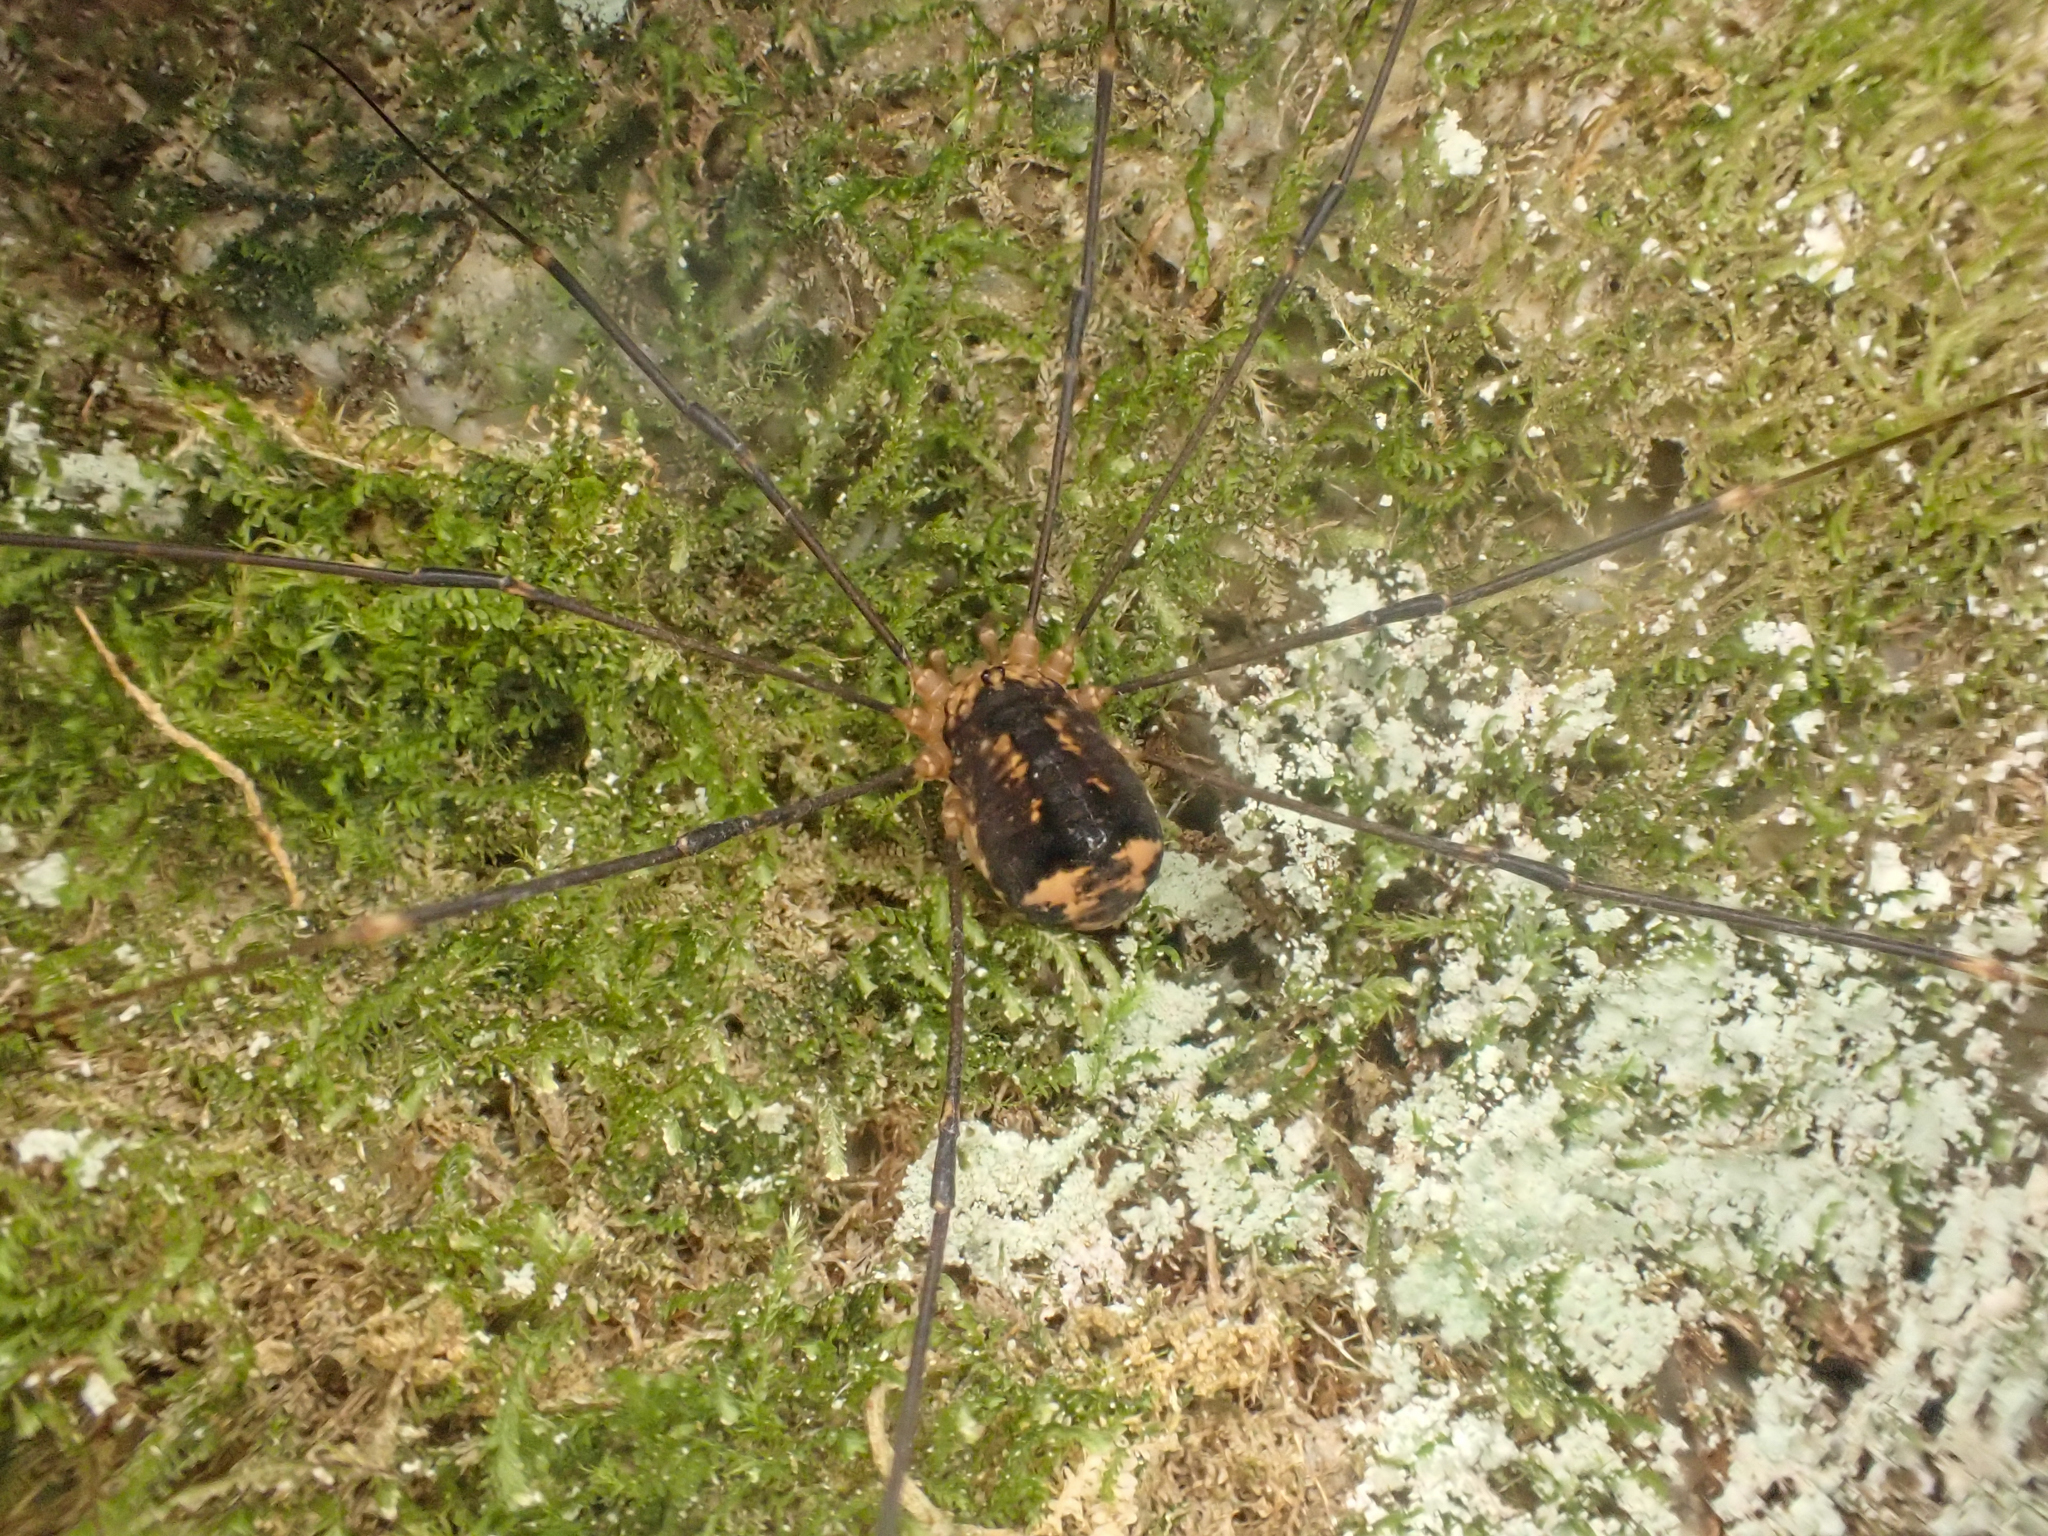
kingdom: Animalia
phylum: Arthropoda
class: Arachnida
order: Opiliones
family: Sclerosomatidae
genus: Nelima
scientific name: Nelima paessleri
